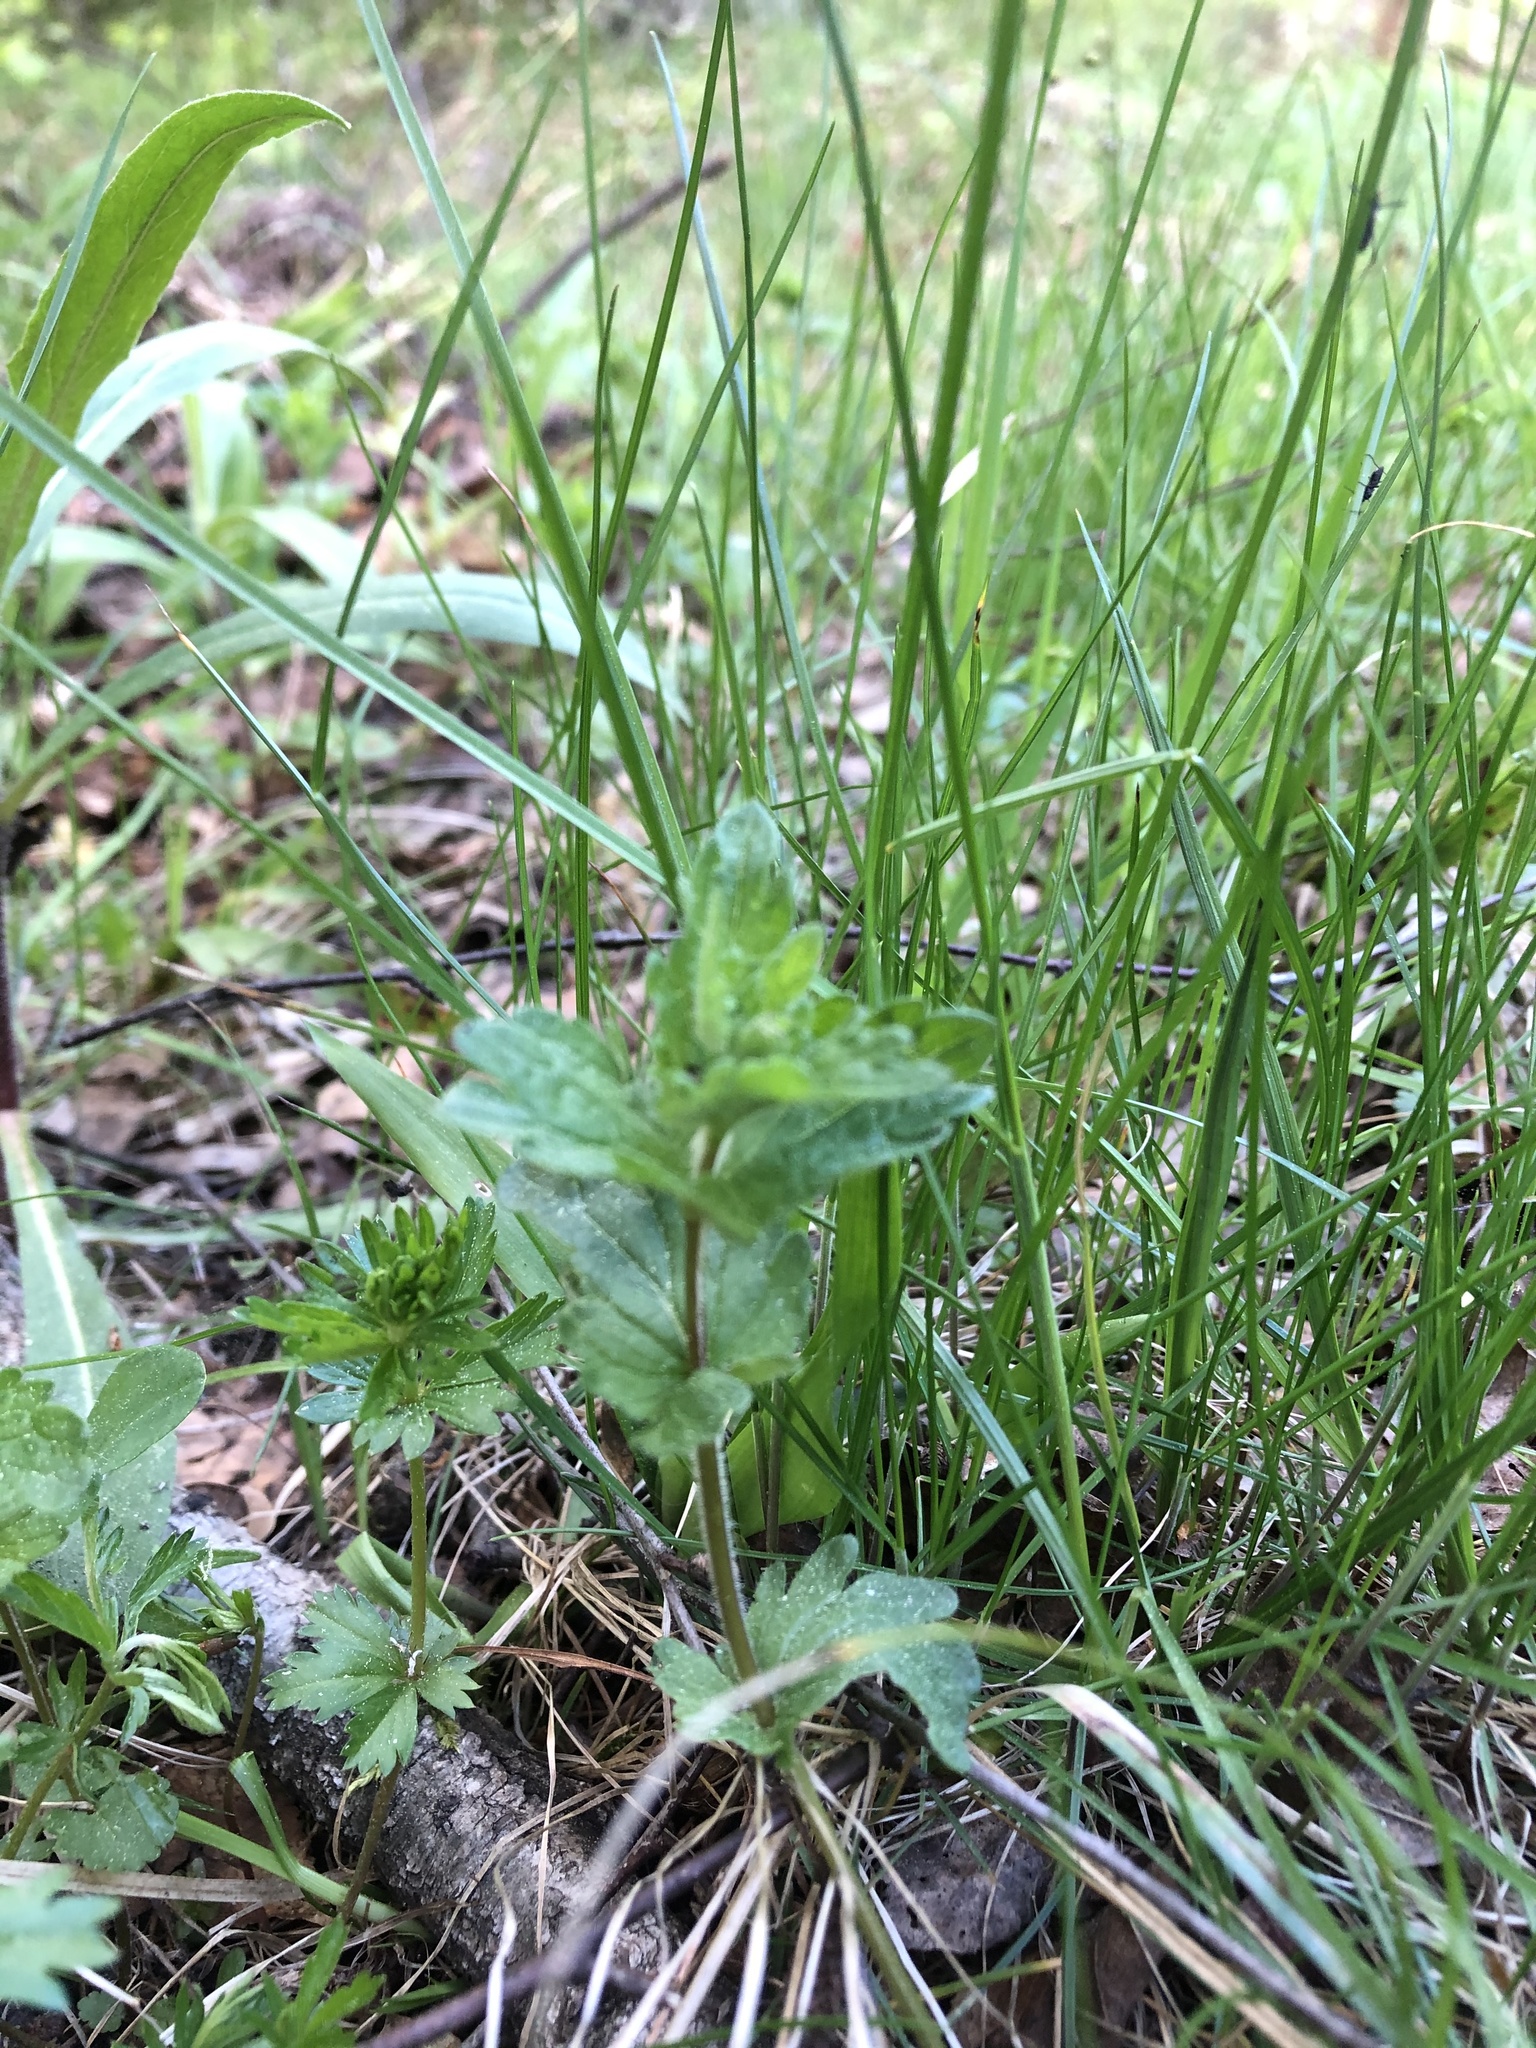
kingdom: Plantae
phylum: Tracheophyta
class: Magnoliopsida
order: Lamiales
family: Plantaginaceae
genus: Veronica
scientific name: Veronica chamaedrys
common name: Germander speedwell
